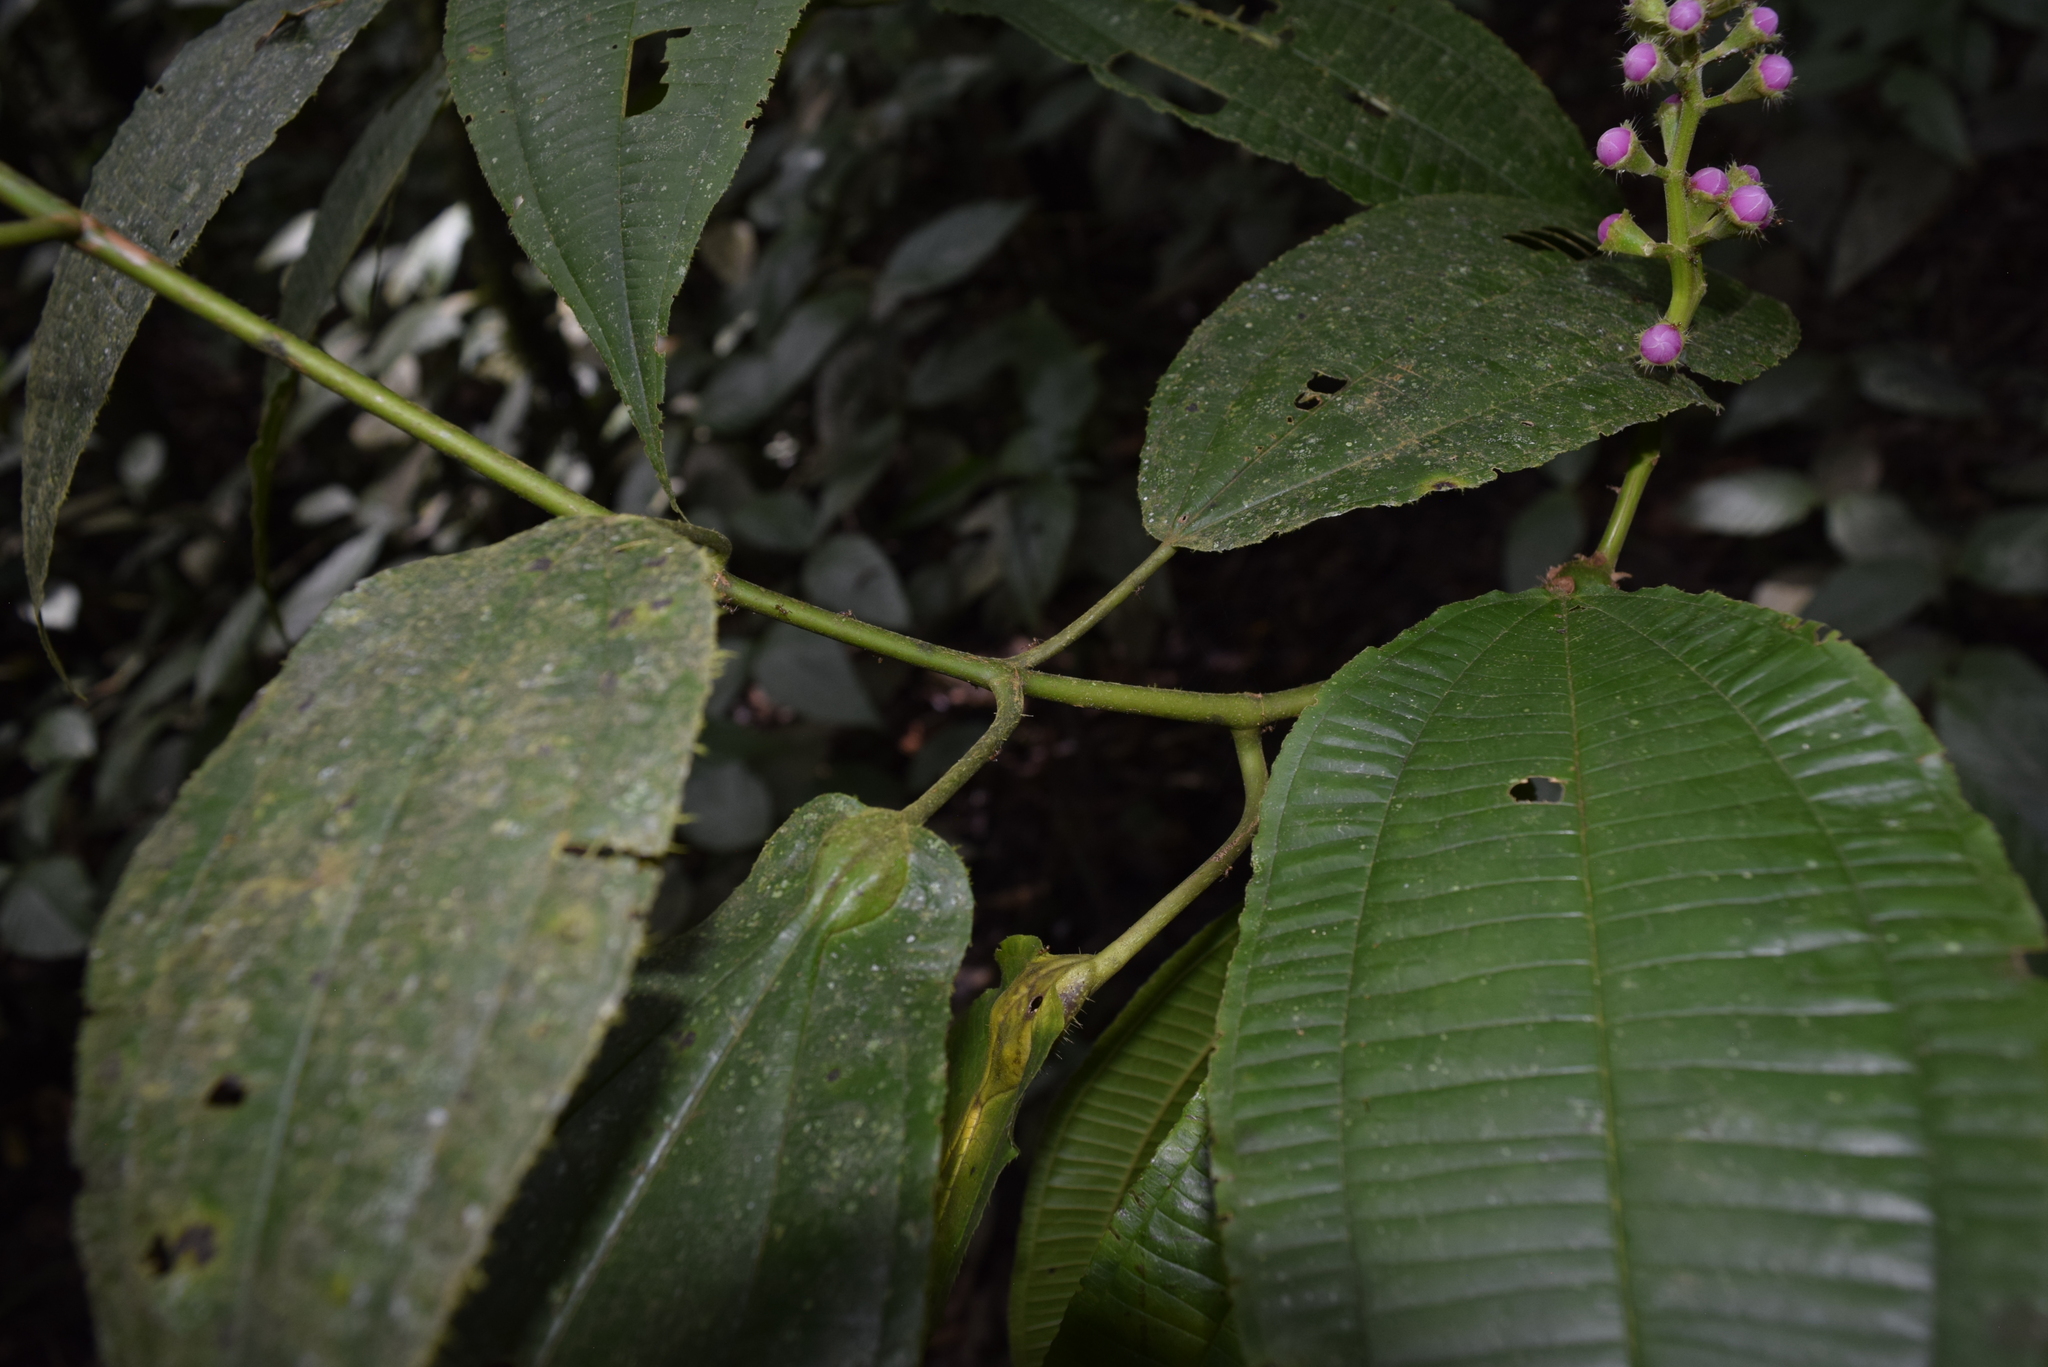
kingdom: Plantae
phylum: Tracheophyta
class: Magnoliopsida
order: Myrtales
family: Melastomataceae
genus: Miconia
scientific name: Miconia tococoronata
